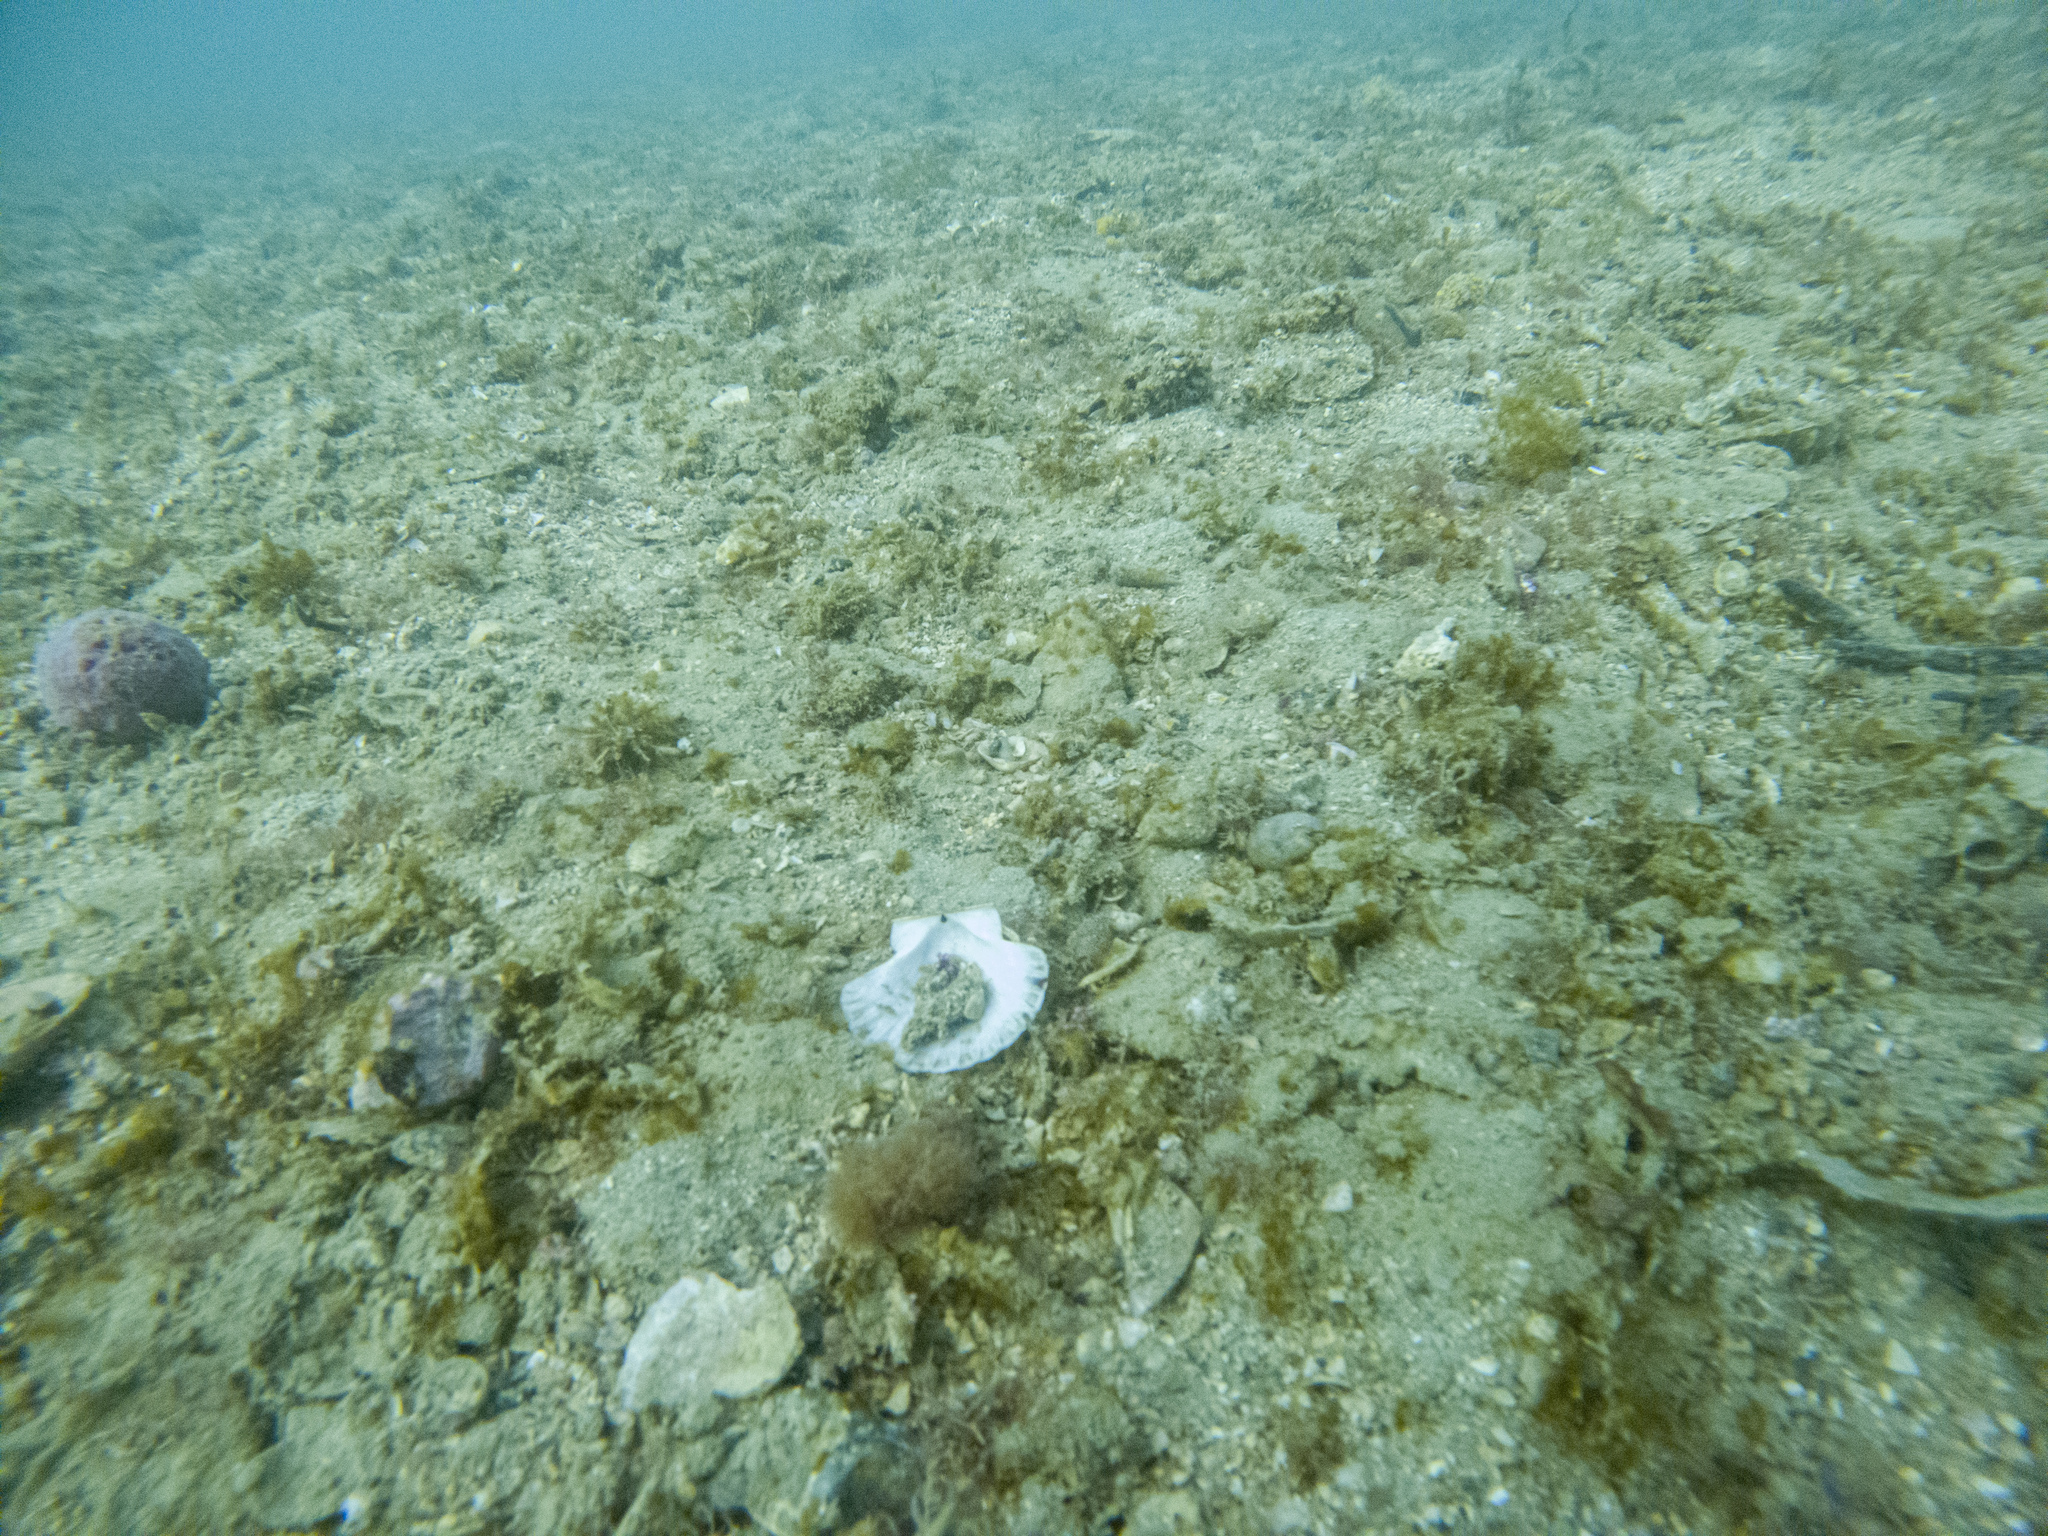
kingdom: Animalia
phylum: Mollusca
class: Bivalvia
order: Pectinida
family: Pectinidae
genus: Pecten
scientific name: Pecten novaezelandiae
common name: New zealand scallop
